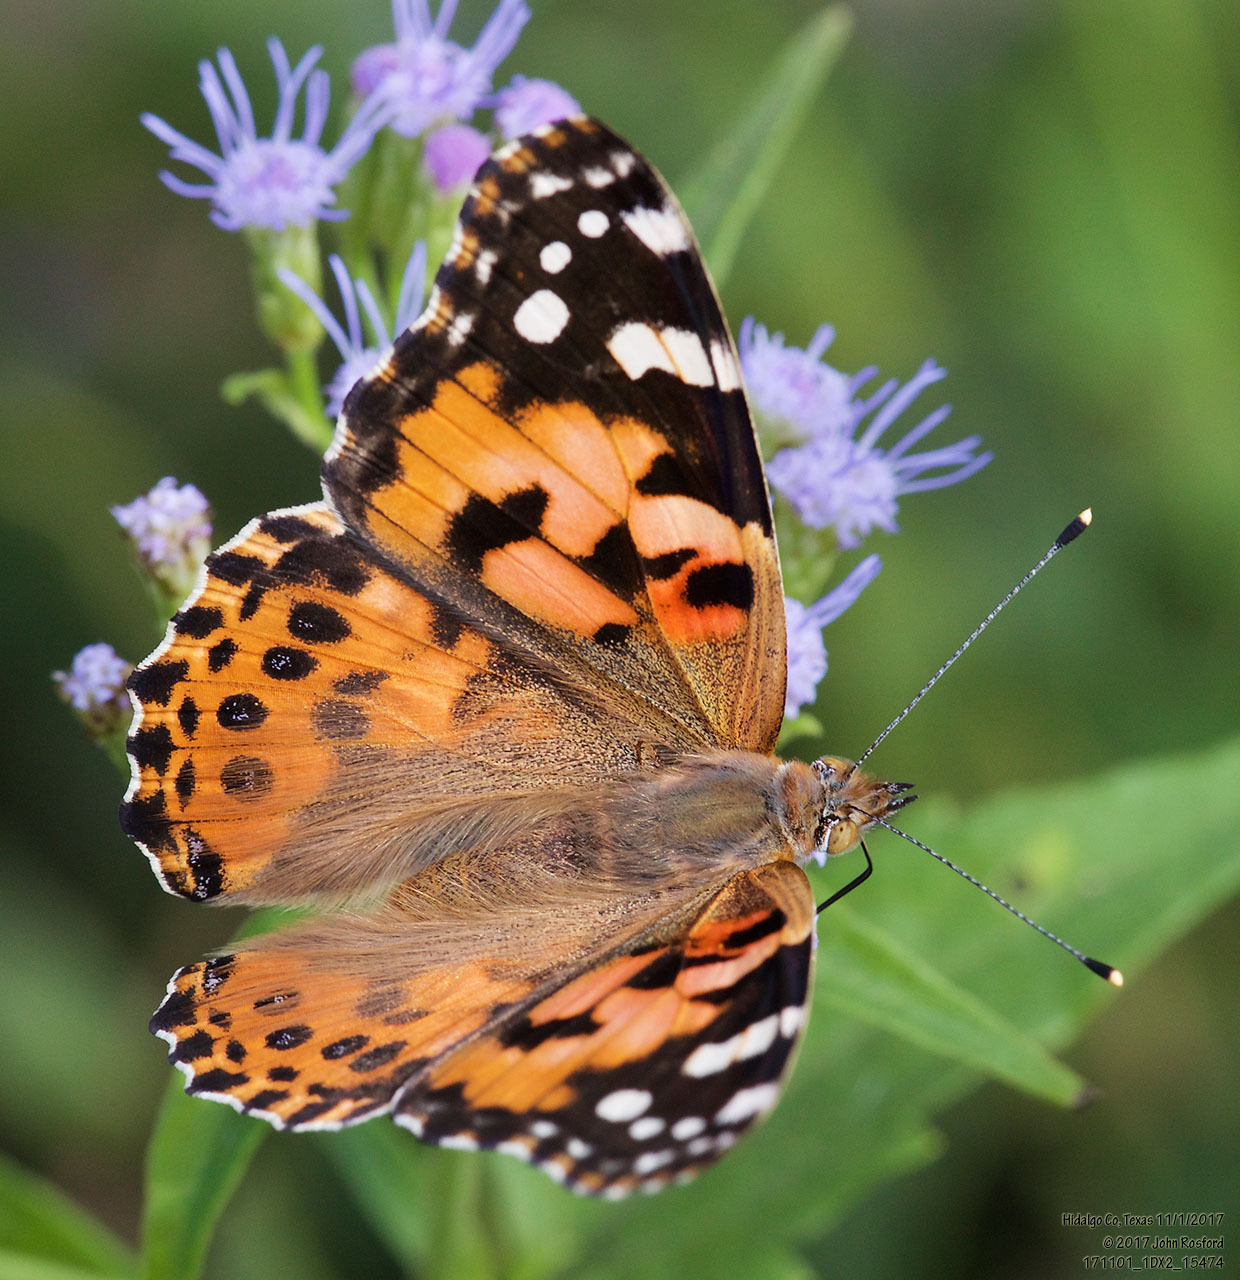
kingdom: Animalia
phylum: Arthropoda
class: Insecta
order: Lepidoptera
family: Nymphalidae
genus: Vanessa
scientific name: Vanessa cardui
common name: Painted lady
